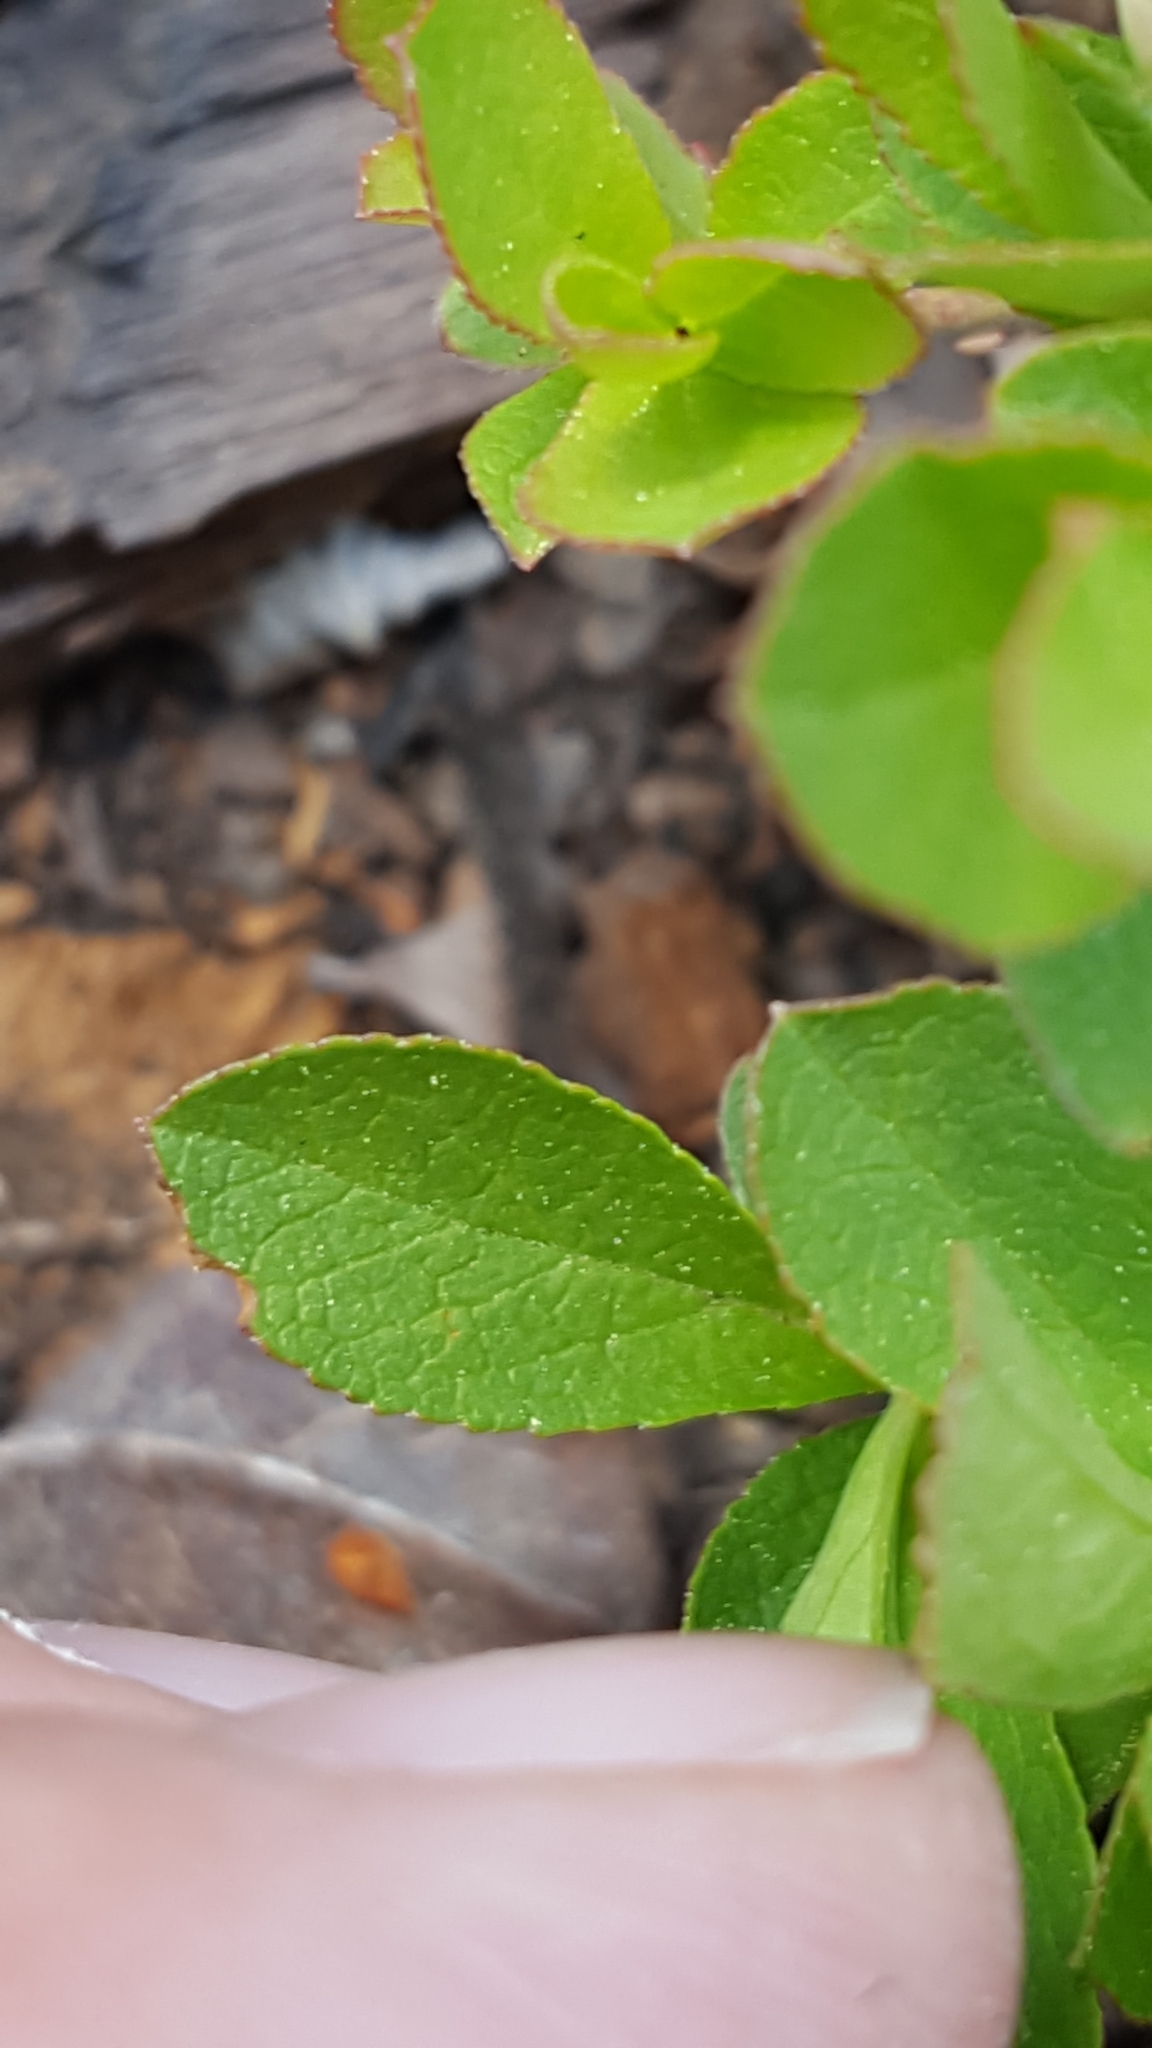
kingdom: Plantae
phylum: Tracheophyta
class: Magnoliopsida
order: Ericales
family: Ericaceae
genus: Vaccinium
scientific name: Vaccinium cespitosum
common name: Dwarf bilberry
